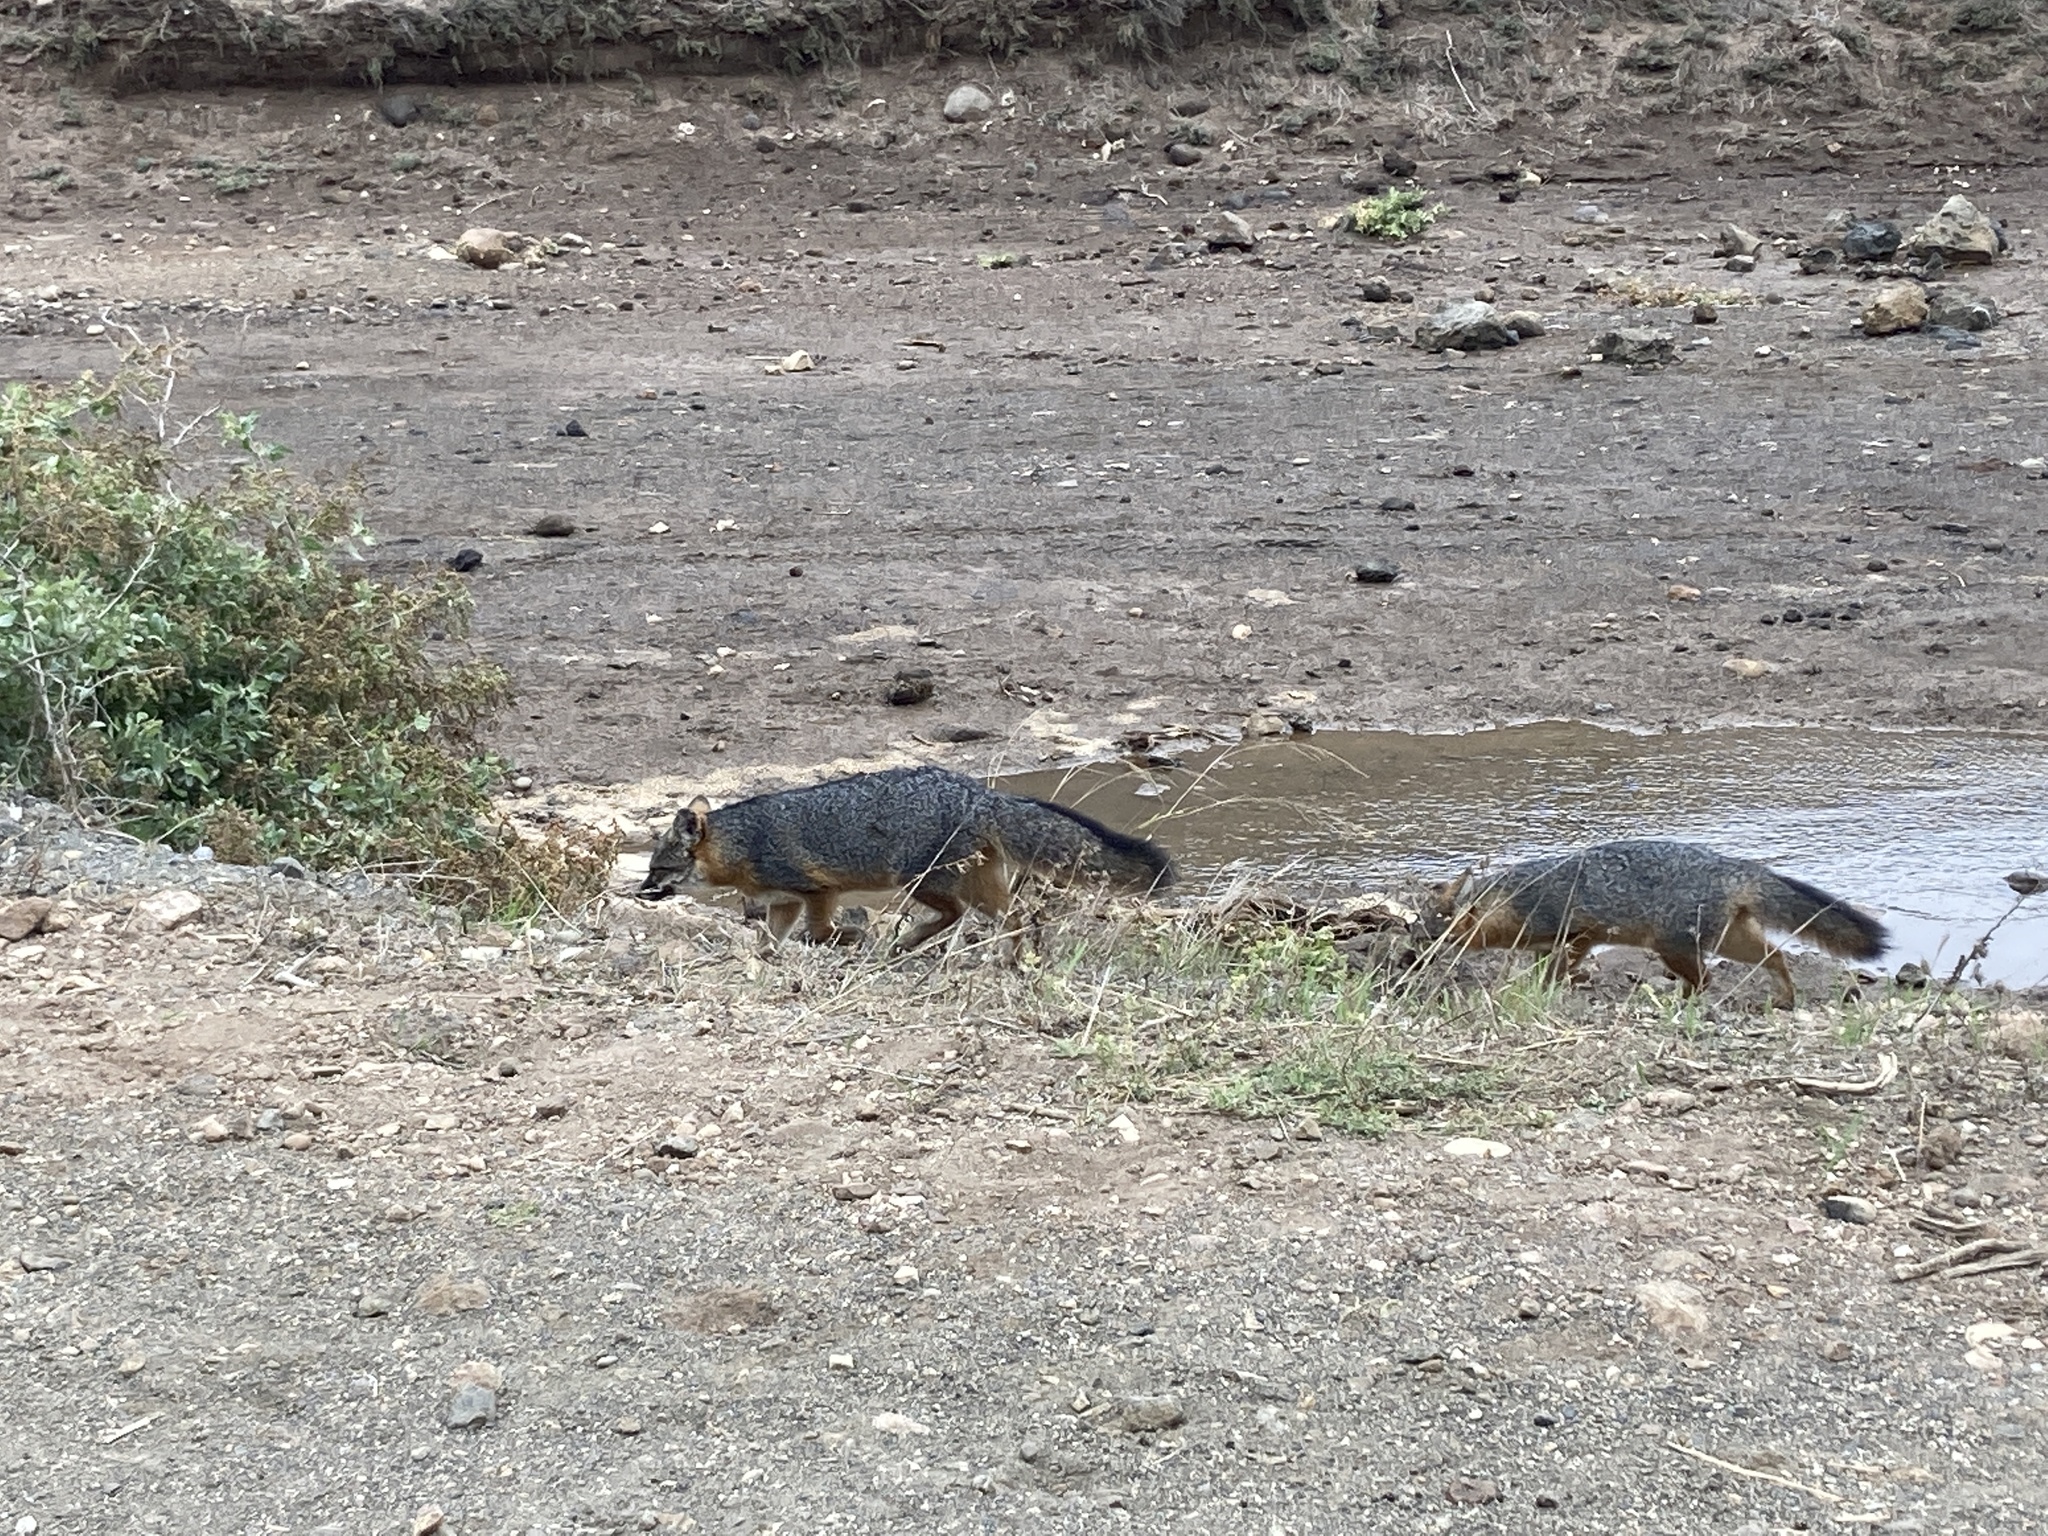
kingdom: Animalia
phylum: Chordata
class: Mammalia
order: Carnivora
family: Canidae
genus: Urocyon
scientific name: Urocyon littoralis
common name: Island gray fox
